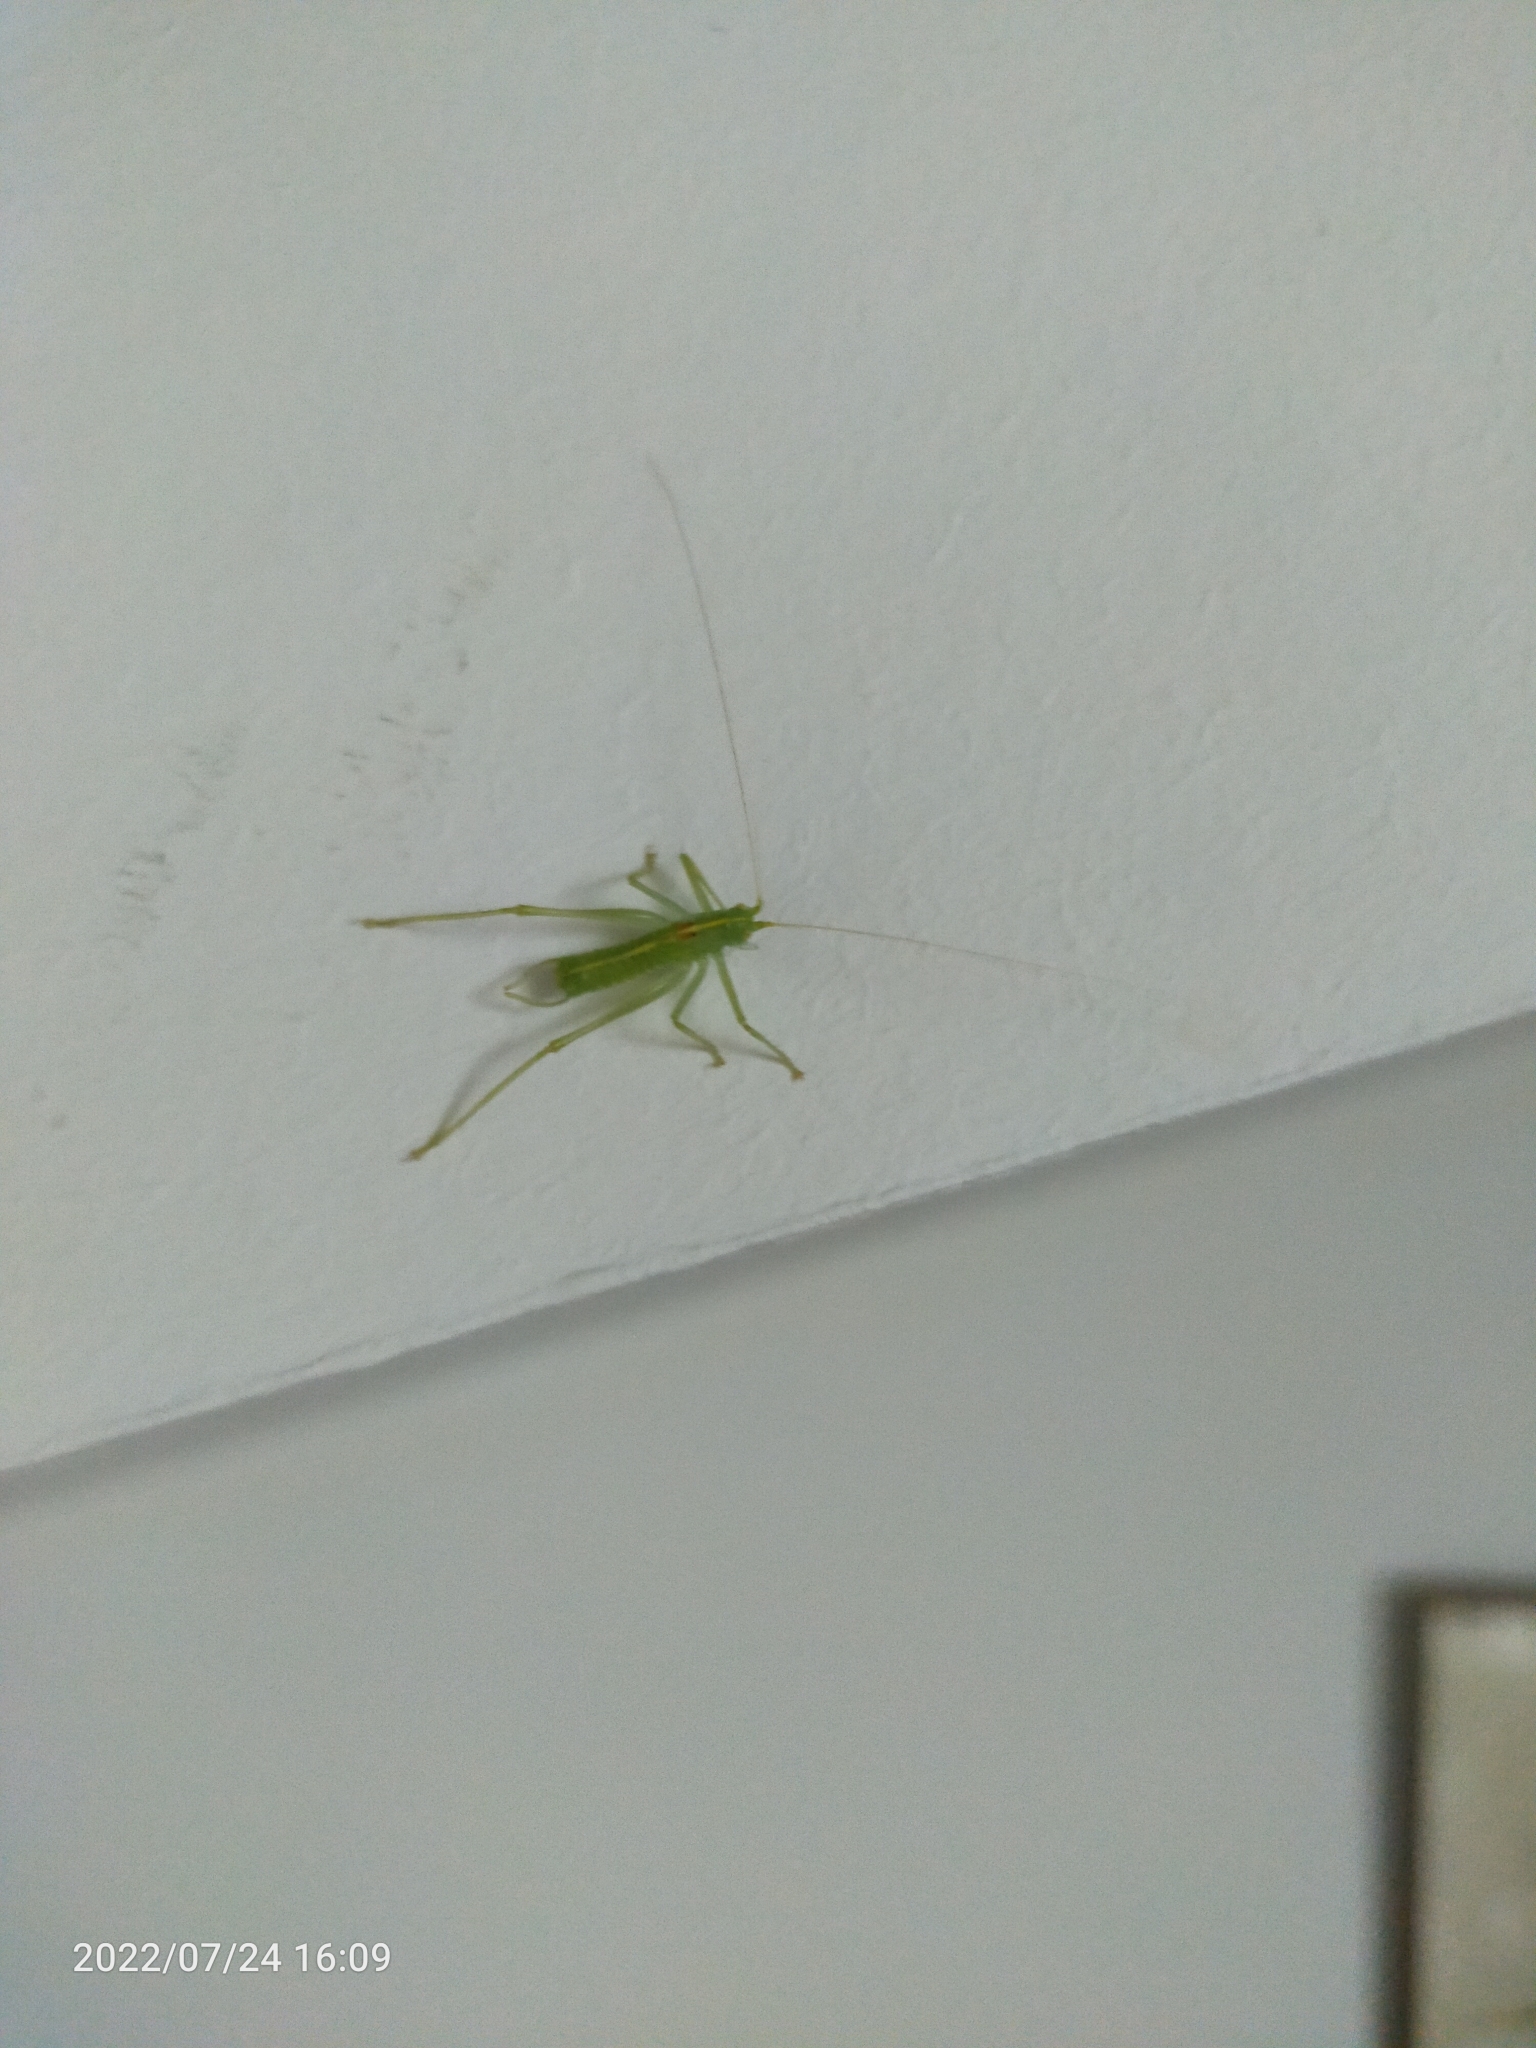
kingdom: Animalia
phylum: Arthropoda
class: Insecta
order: Orthoptera
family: Tettigoniidae
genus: Meconema
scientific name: Meconema meridionale
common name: Southern oak bush-cricket
